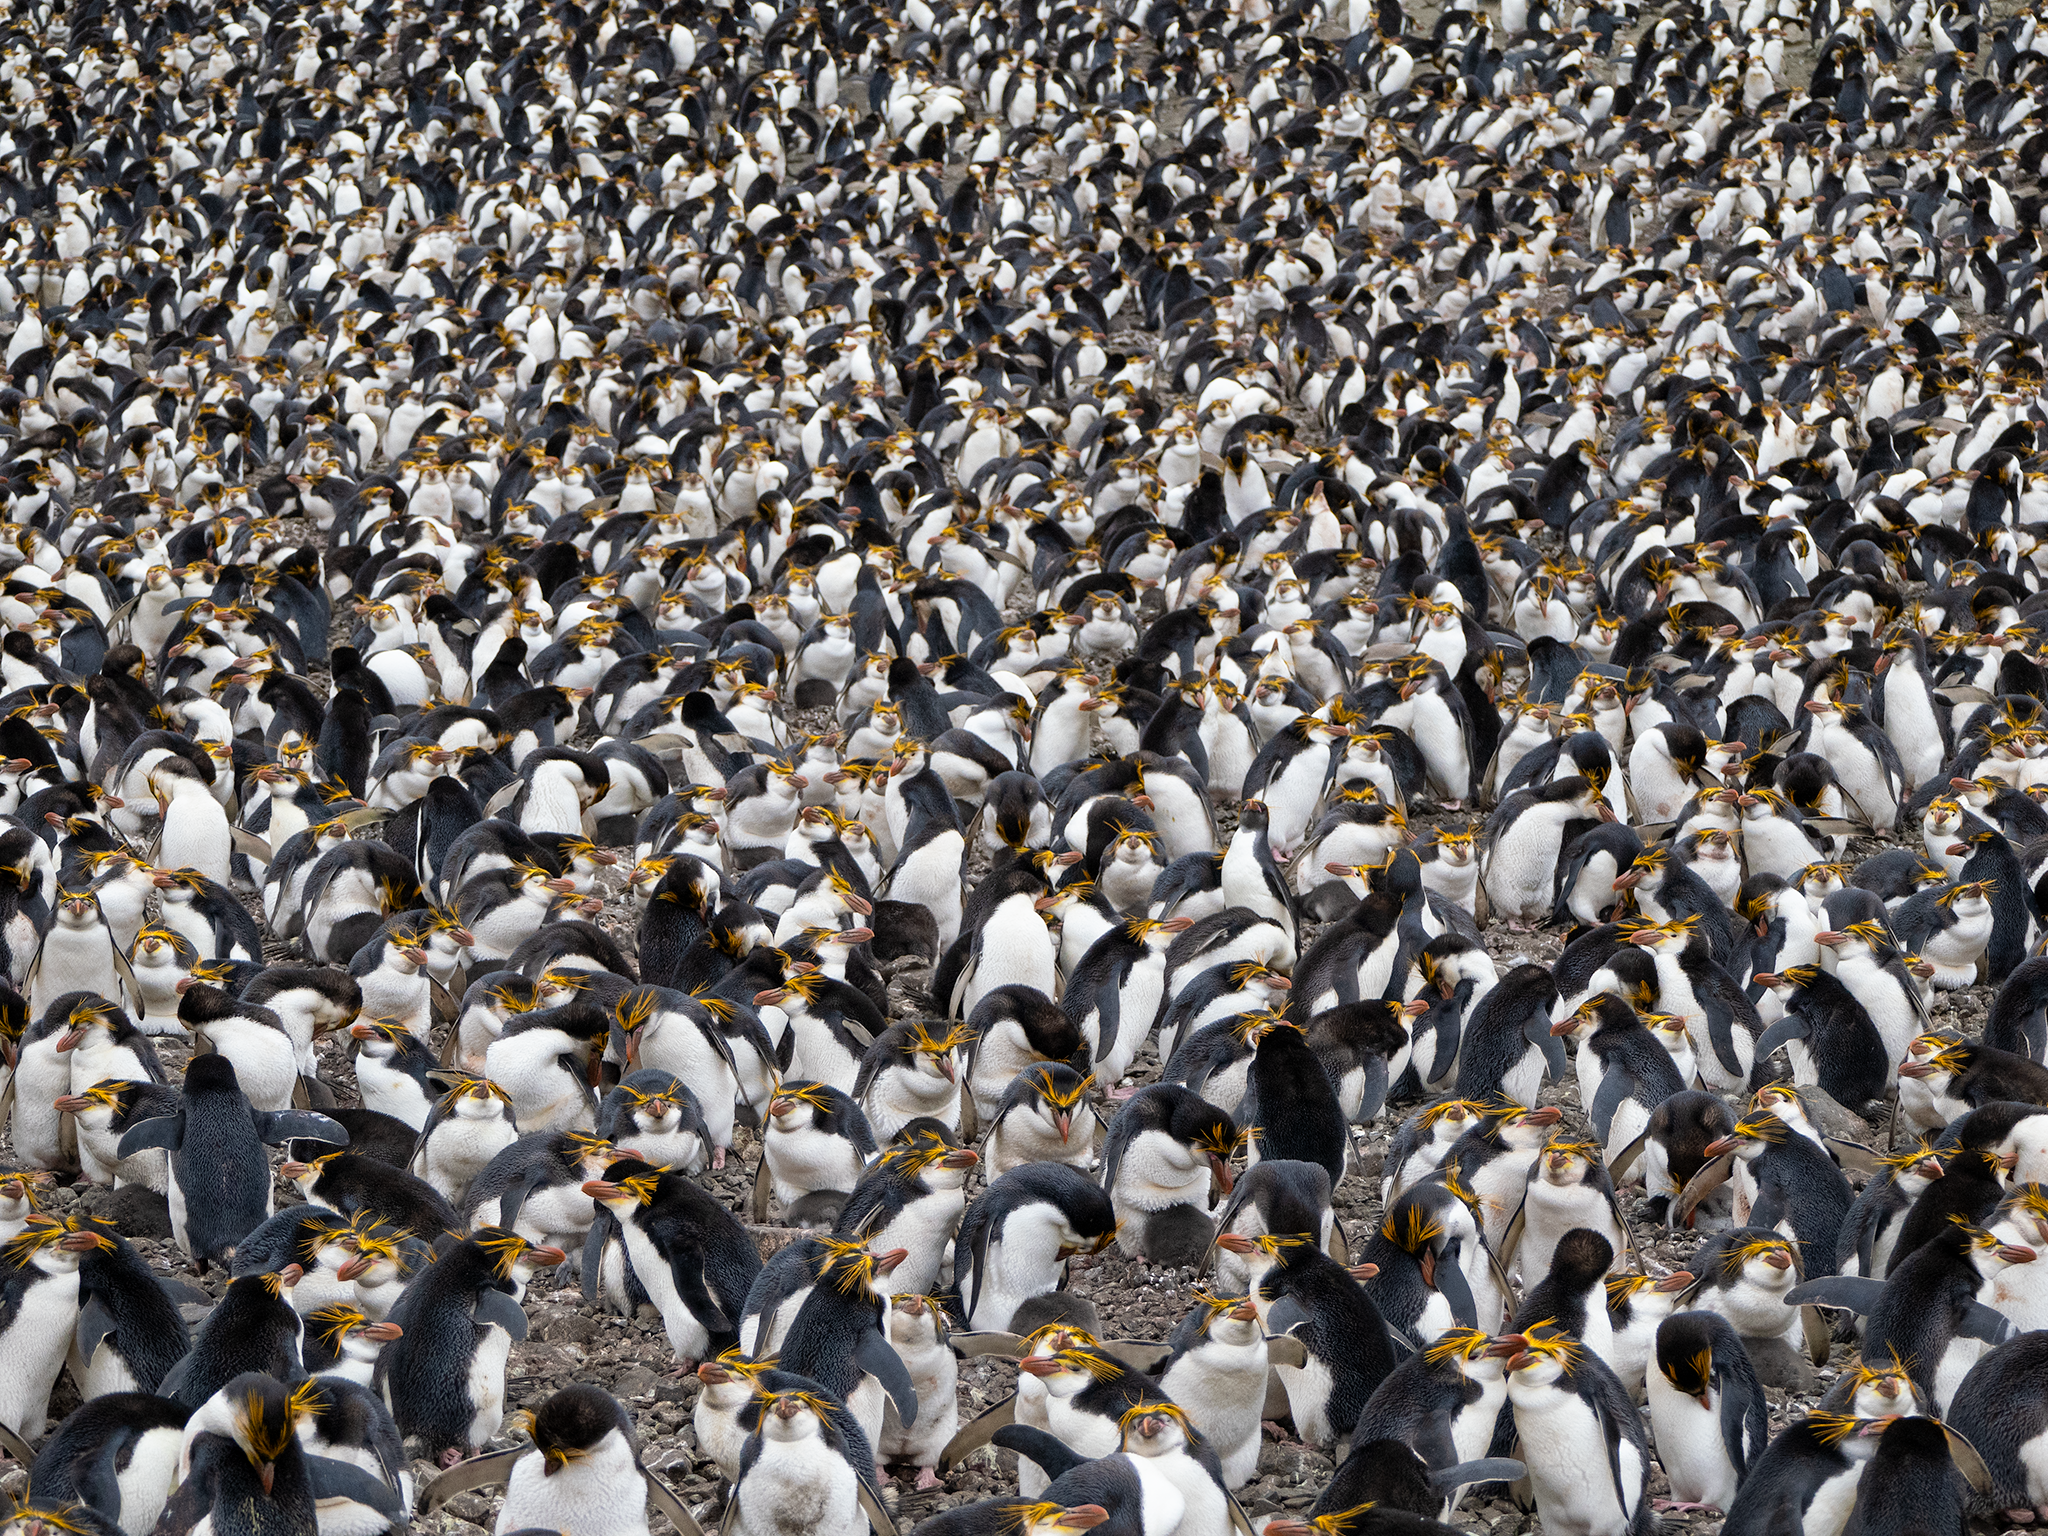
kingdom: Animalia
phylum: Chordata
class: Aves
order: Sphenisciformes
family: Spheniscidae
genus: Eudyptes
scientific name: Eudyptes schlegeli
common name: Royal penguin
